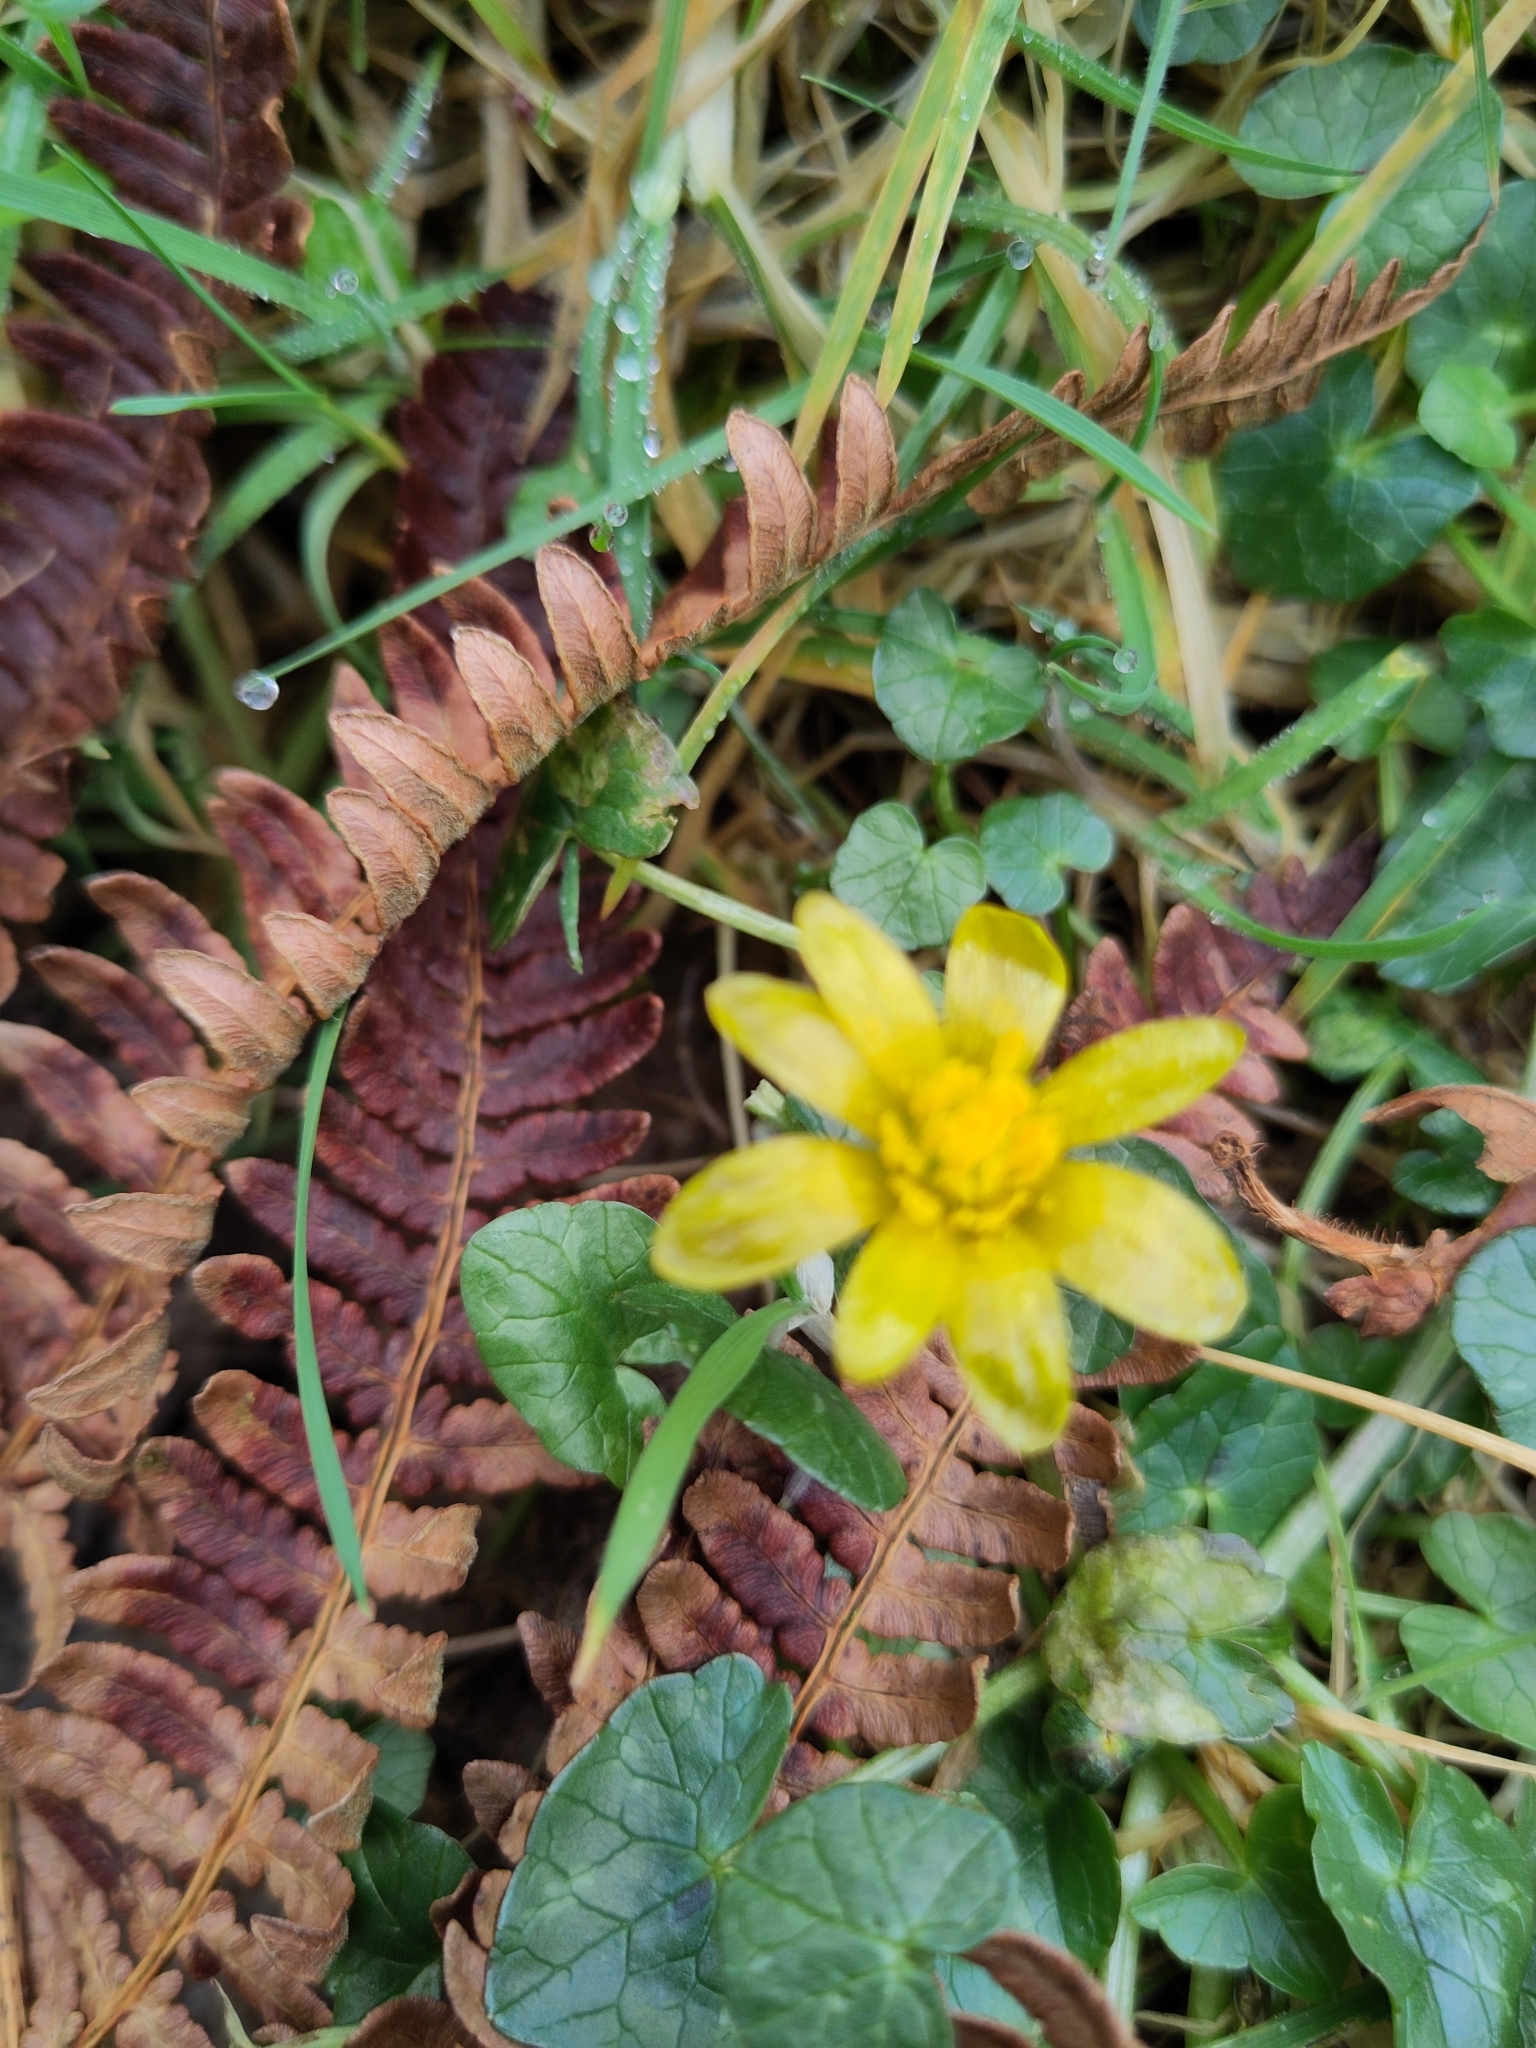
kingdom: Plantae
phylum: Tracheophyta
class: Magnoliopsida
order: Ranunculales
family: Ranunculaceae
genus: Ficaria
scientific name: Ficaria verna
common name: Lesser celandine
